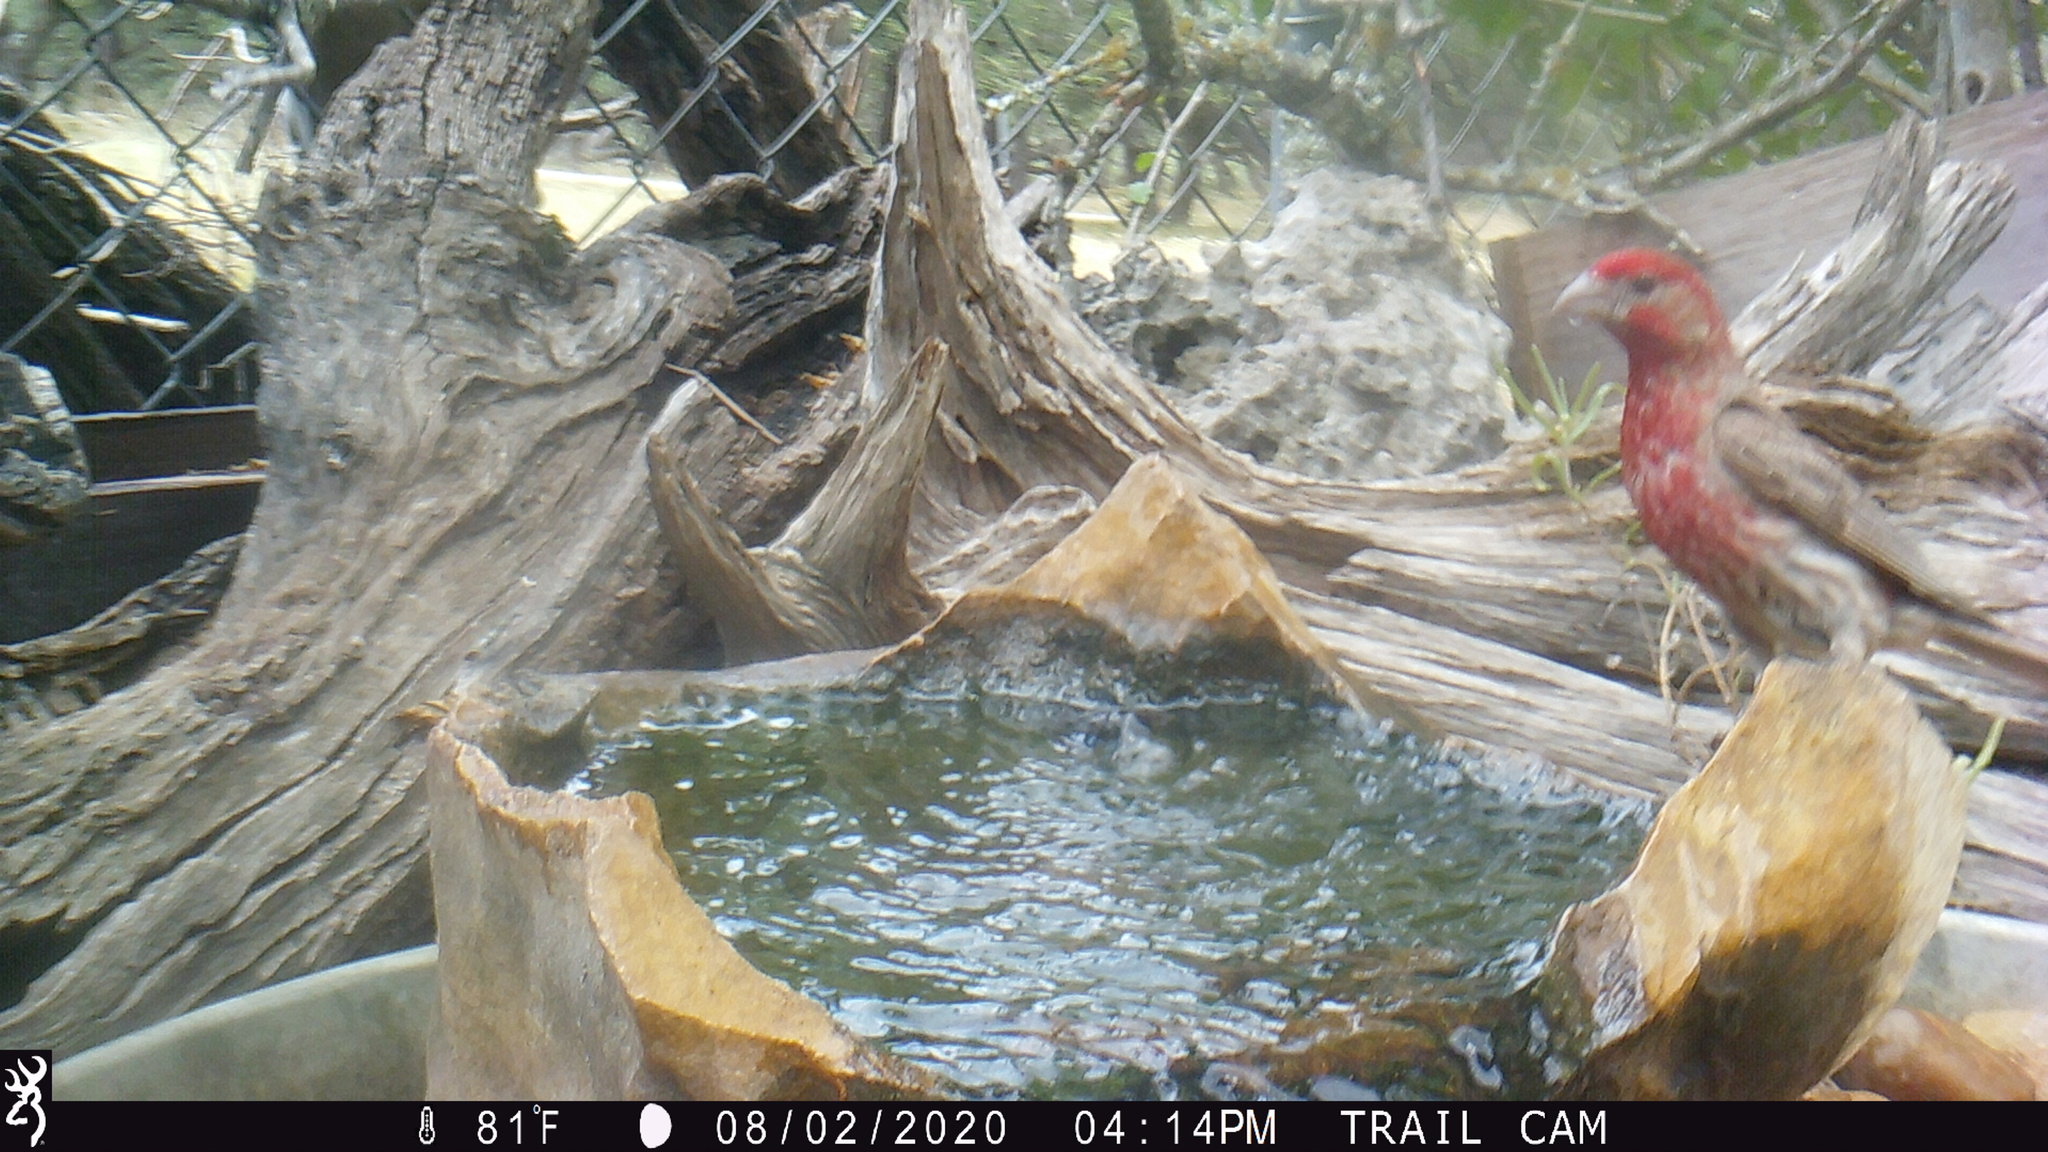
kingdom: Animalia
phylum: Chordata
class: Aves
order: Passeriformes
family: Fringillidae
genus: Haemorhous
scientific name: Haemorhous mexicanus
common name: House finch
